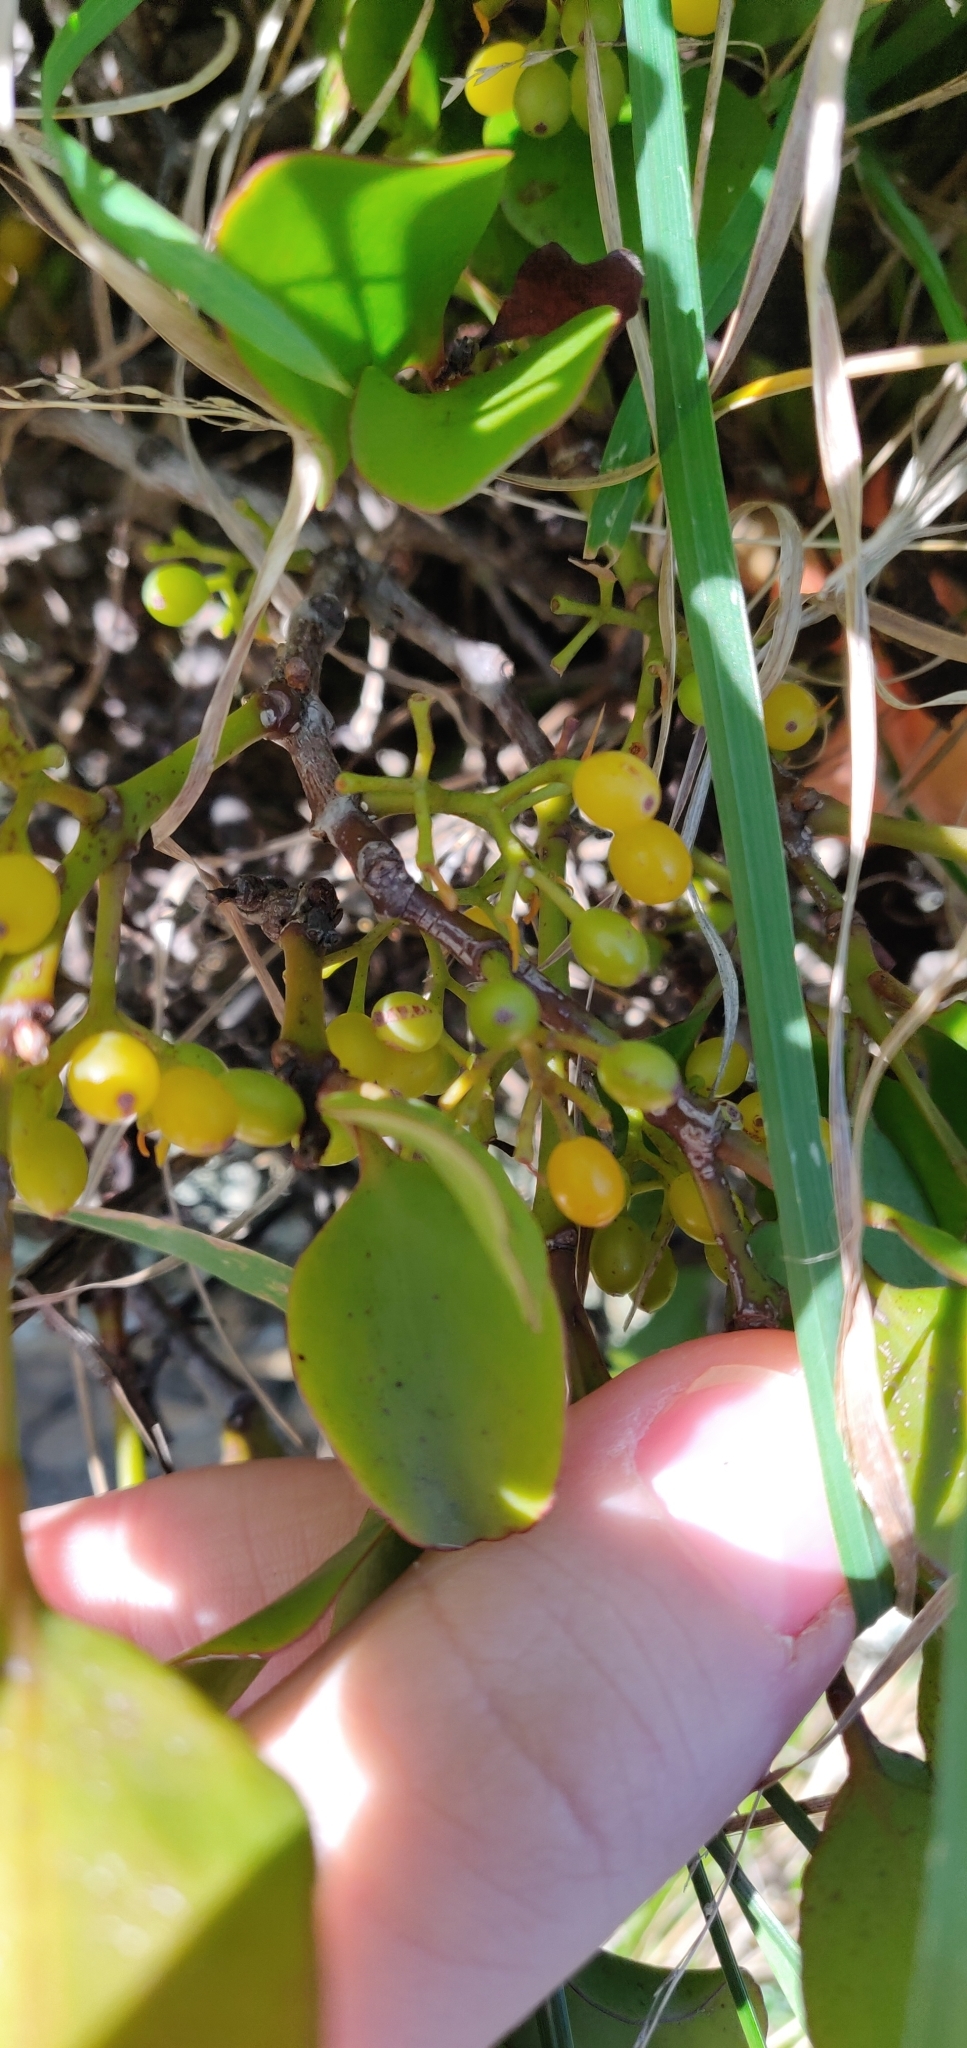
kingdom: Plantae
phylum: Tracheophyta
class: Magnoliopsida
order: Santalales
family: Loranthaceae
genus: Ileostylus
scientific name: Ileostylus micranthus
